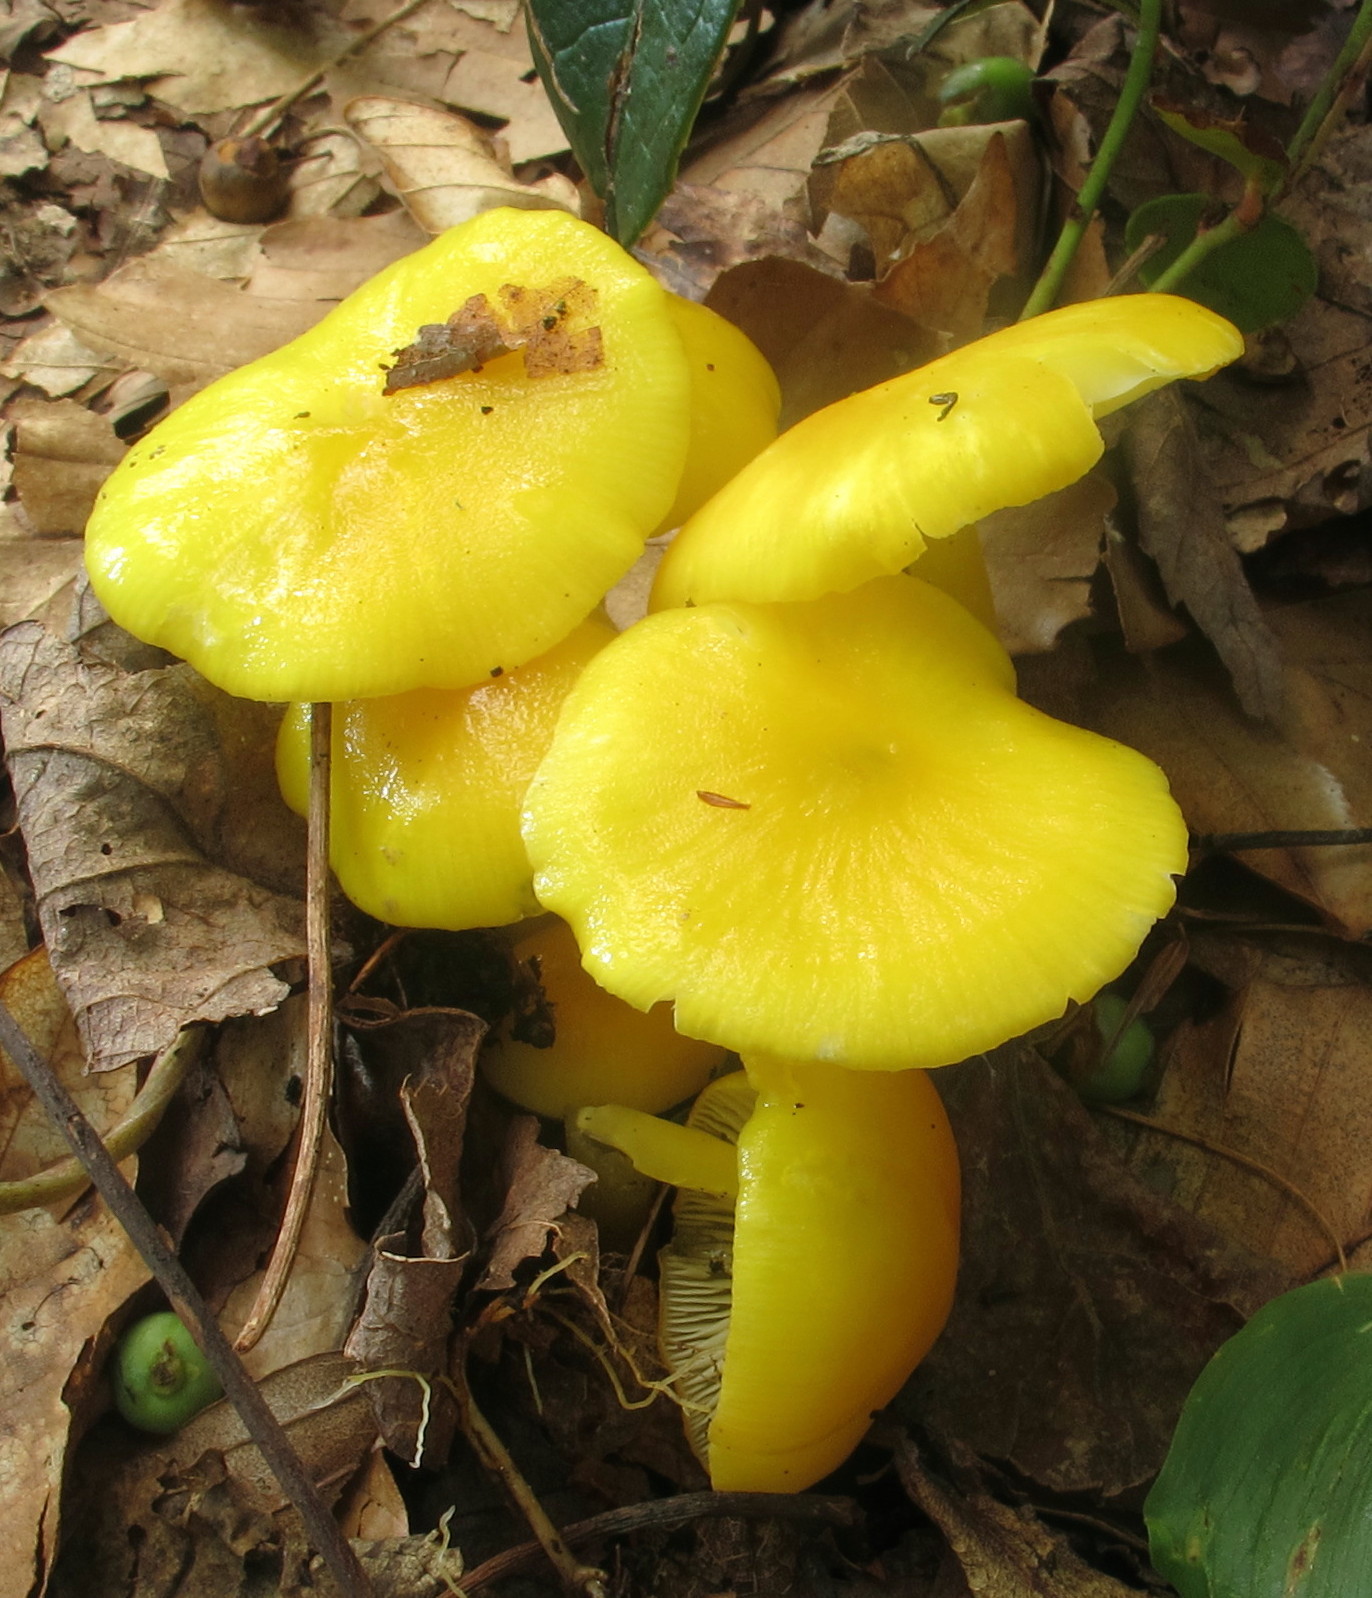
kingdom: Fungi
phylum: Basidiomycota
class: Agaricomycetes
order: Agaricales
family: Hygrophoraceae
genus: Hygrocybe
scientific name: Hygrocybe chlorophana
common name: Golden waxcap
